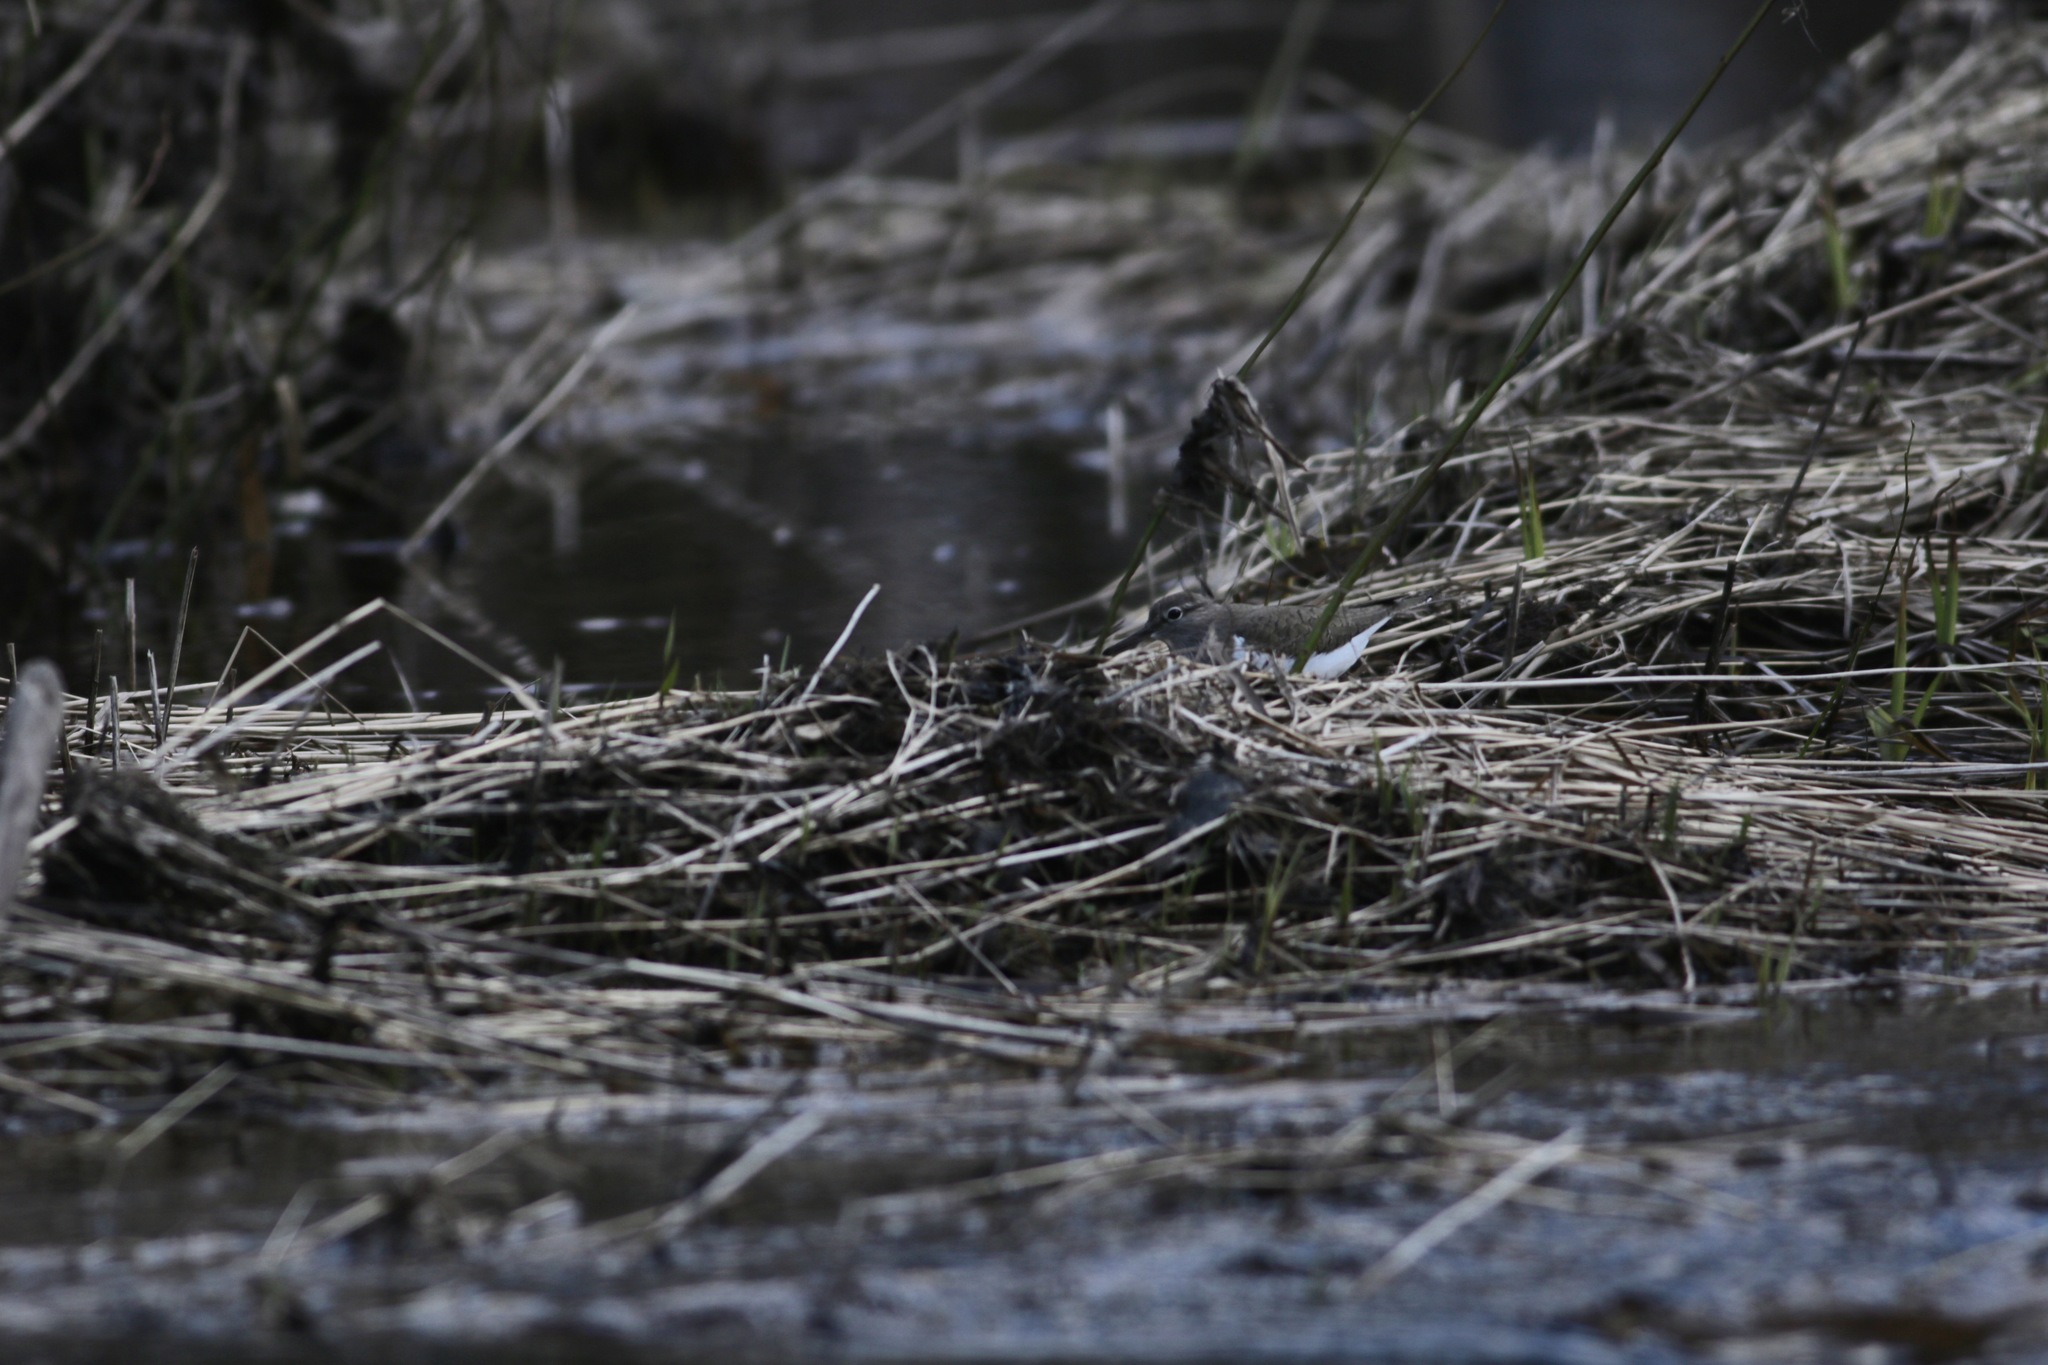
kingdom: Animalia
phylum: Chordata
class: Aves
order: Charadriiformes
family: Scolopacidae
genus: Actitis
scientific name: Actitis hypoleucos
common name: Common sandpiper
